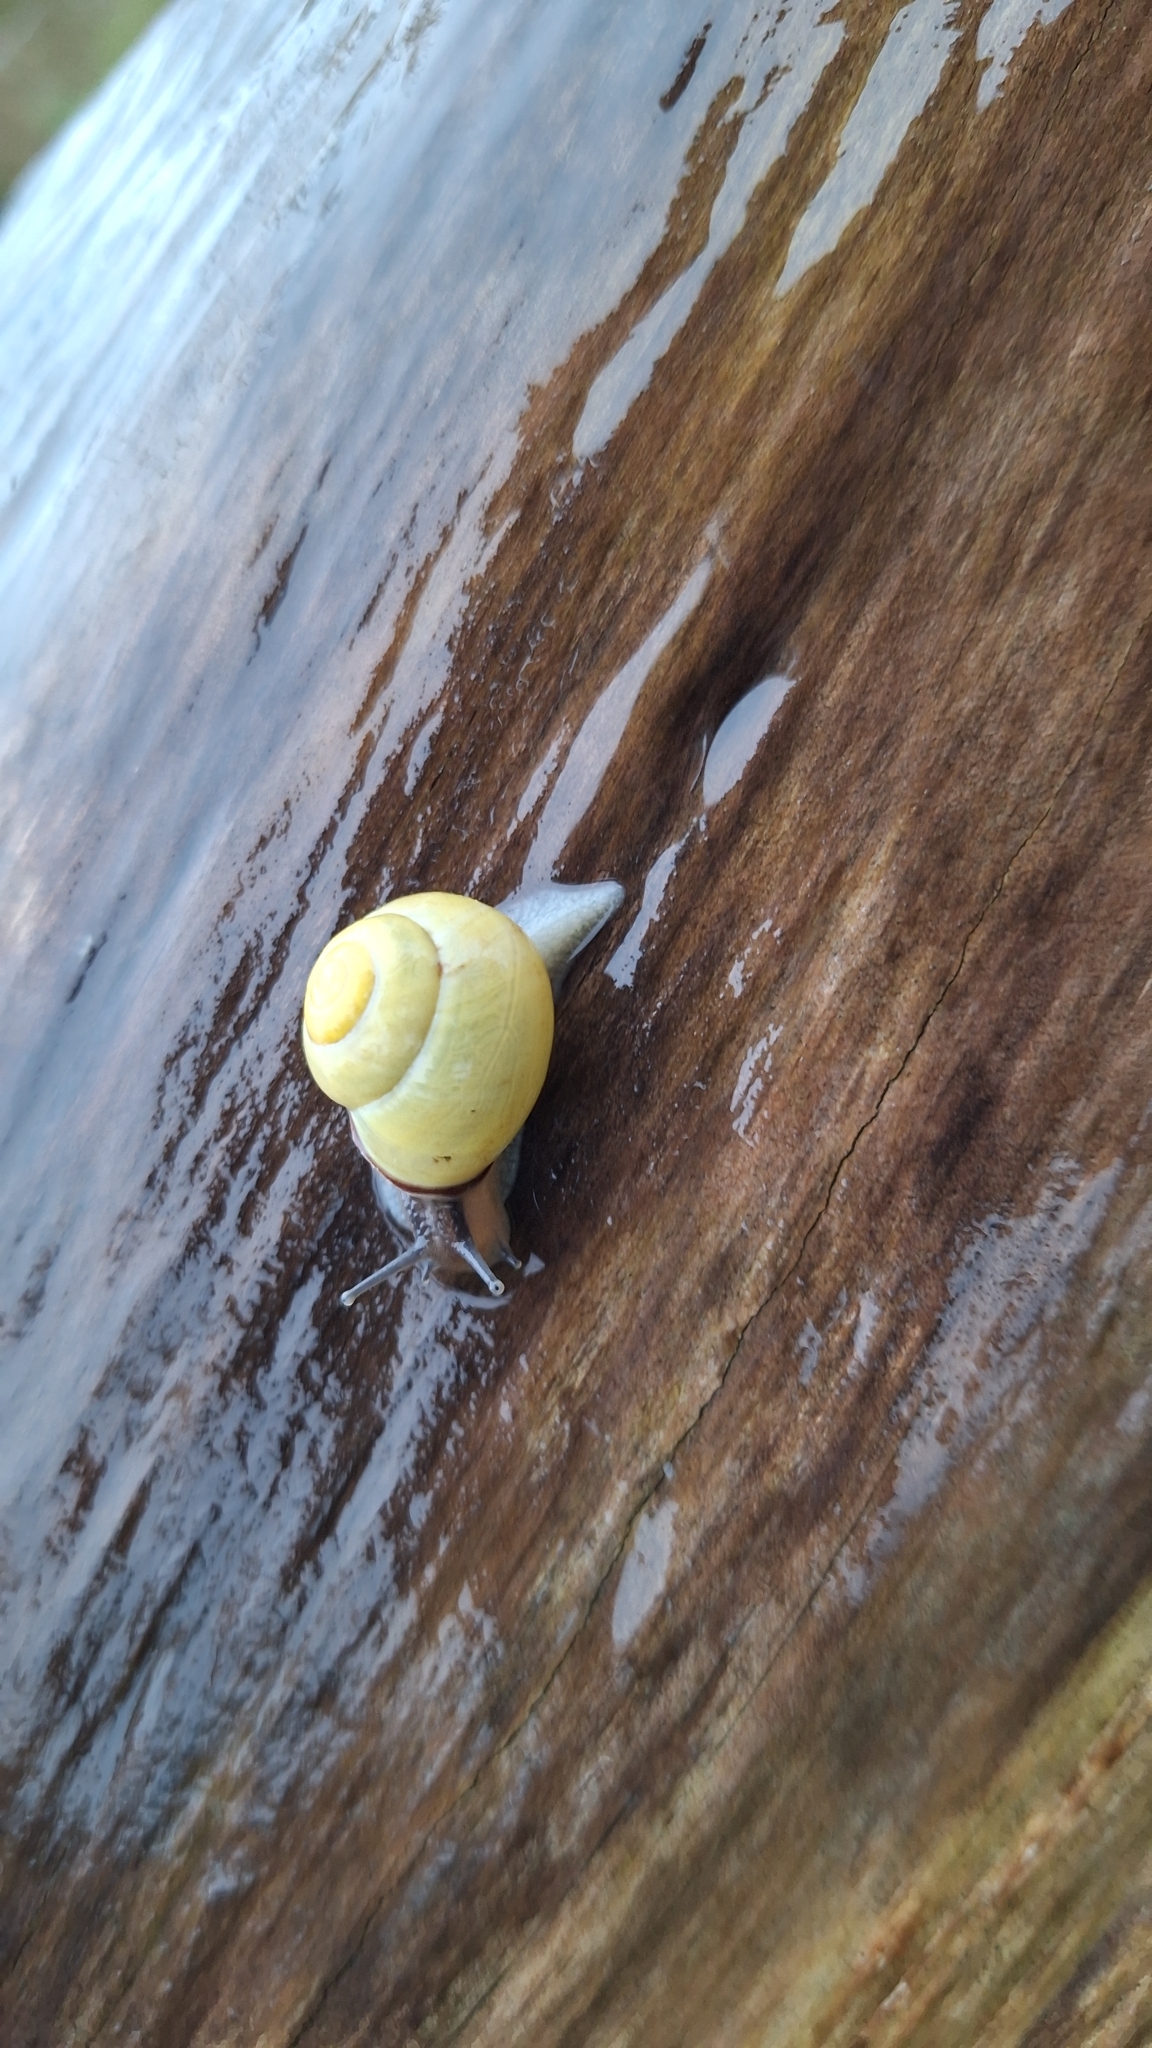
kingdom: Animalia
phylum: Mollusca
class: Gastropoda
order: Stylommatophora
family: Helicidae
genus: Cepaea
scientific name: Cepaea nemoralis
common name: Grovesnail
